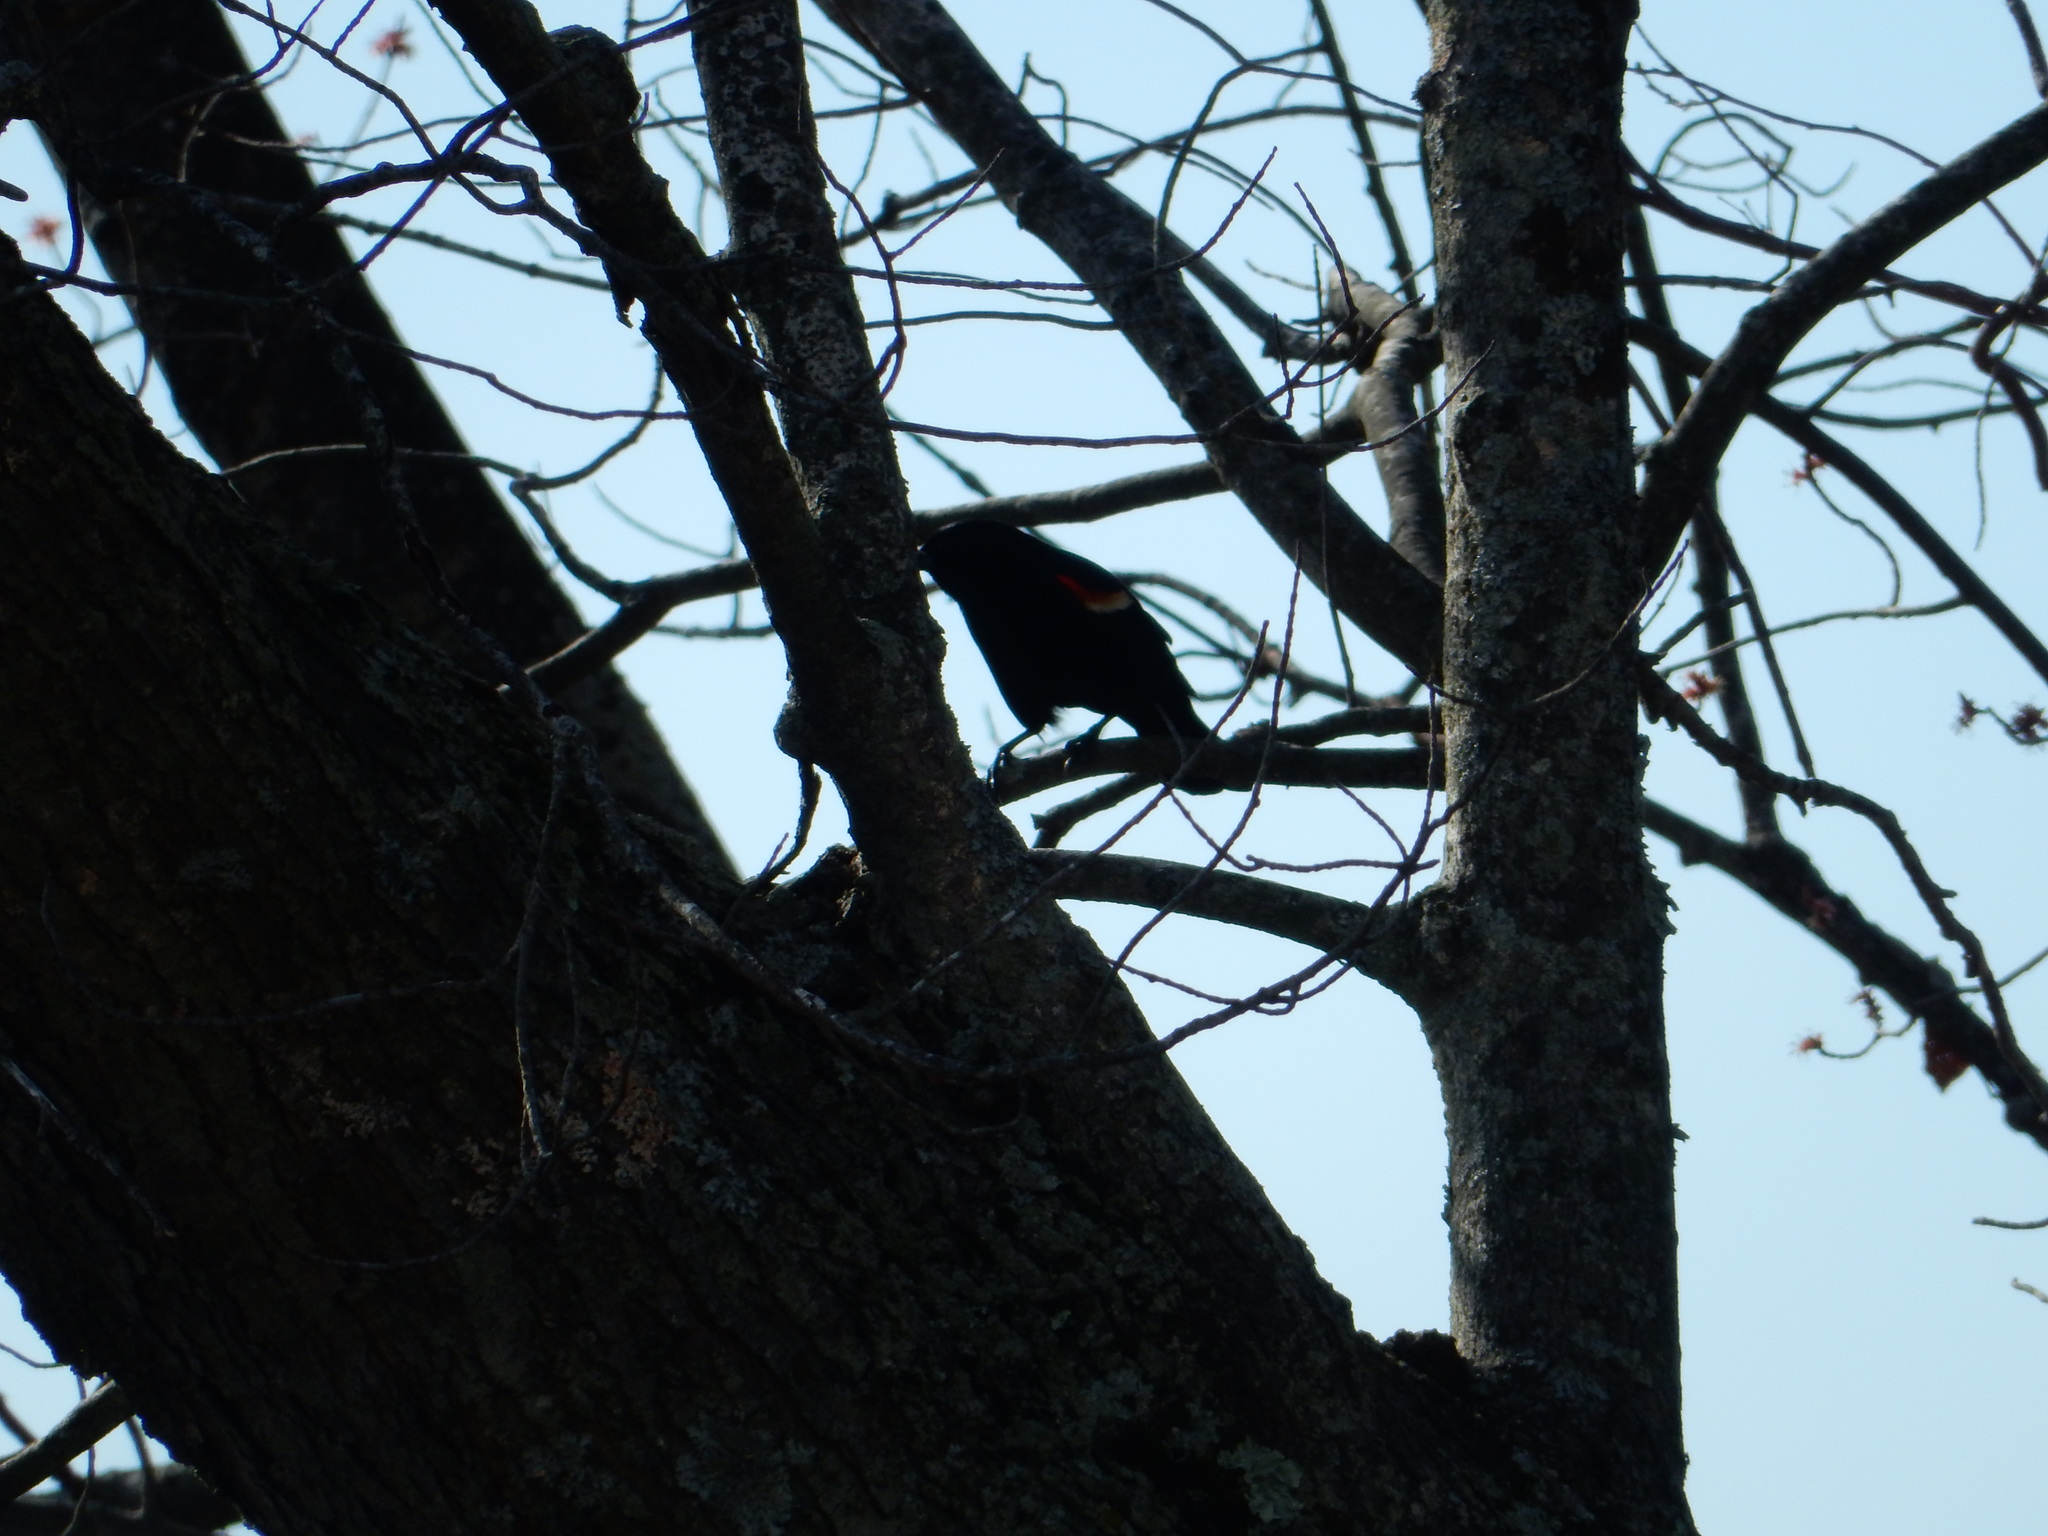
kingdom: Animalia
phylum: Chordata
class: Aves
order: Passeriformes
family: Icteridae
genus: Agelaius
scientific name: Agelaius phoeniceus
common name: Red-winged blackbird
